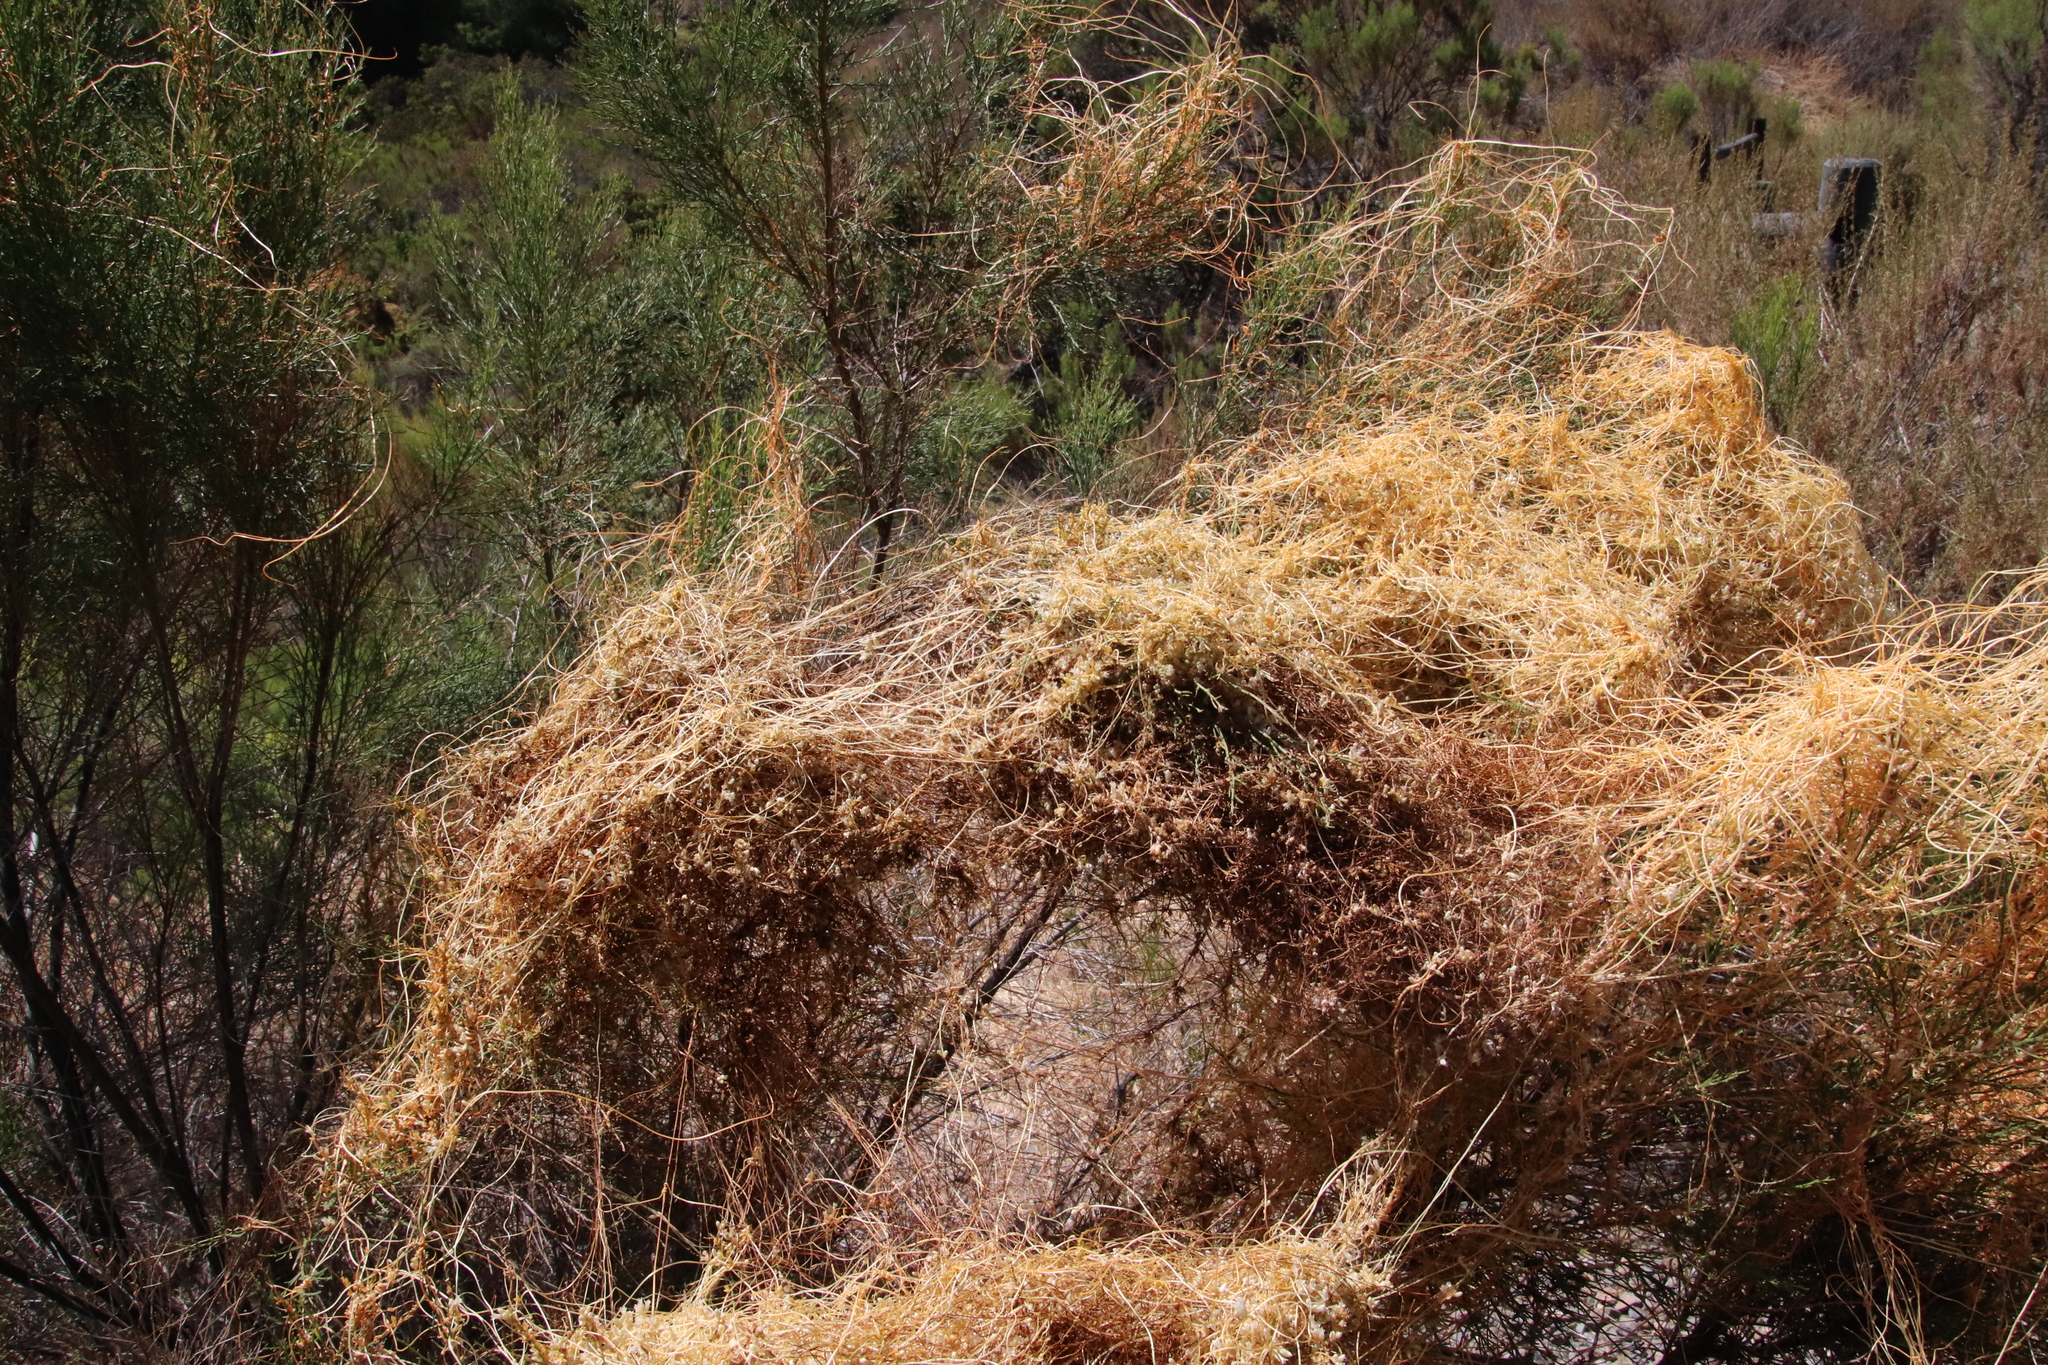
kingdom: Plantae
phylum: Tracheophyta
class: Magnoliopsida
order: Solanales
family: Convolvulaceae
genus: Cuscuta
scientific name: Cuscuta subinclusa
